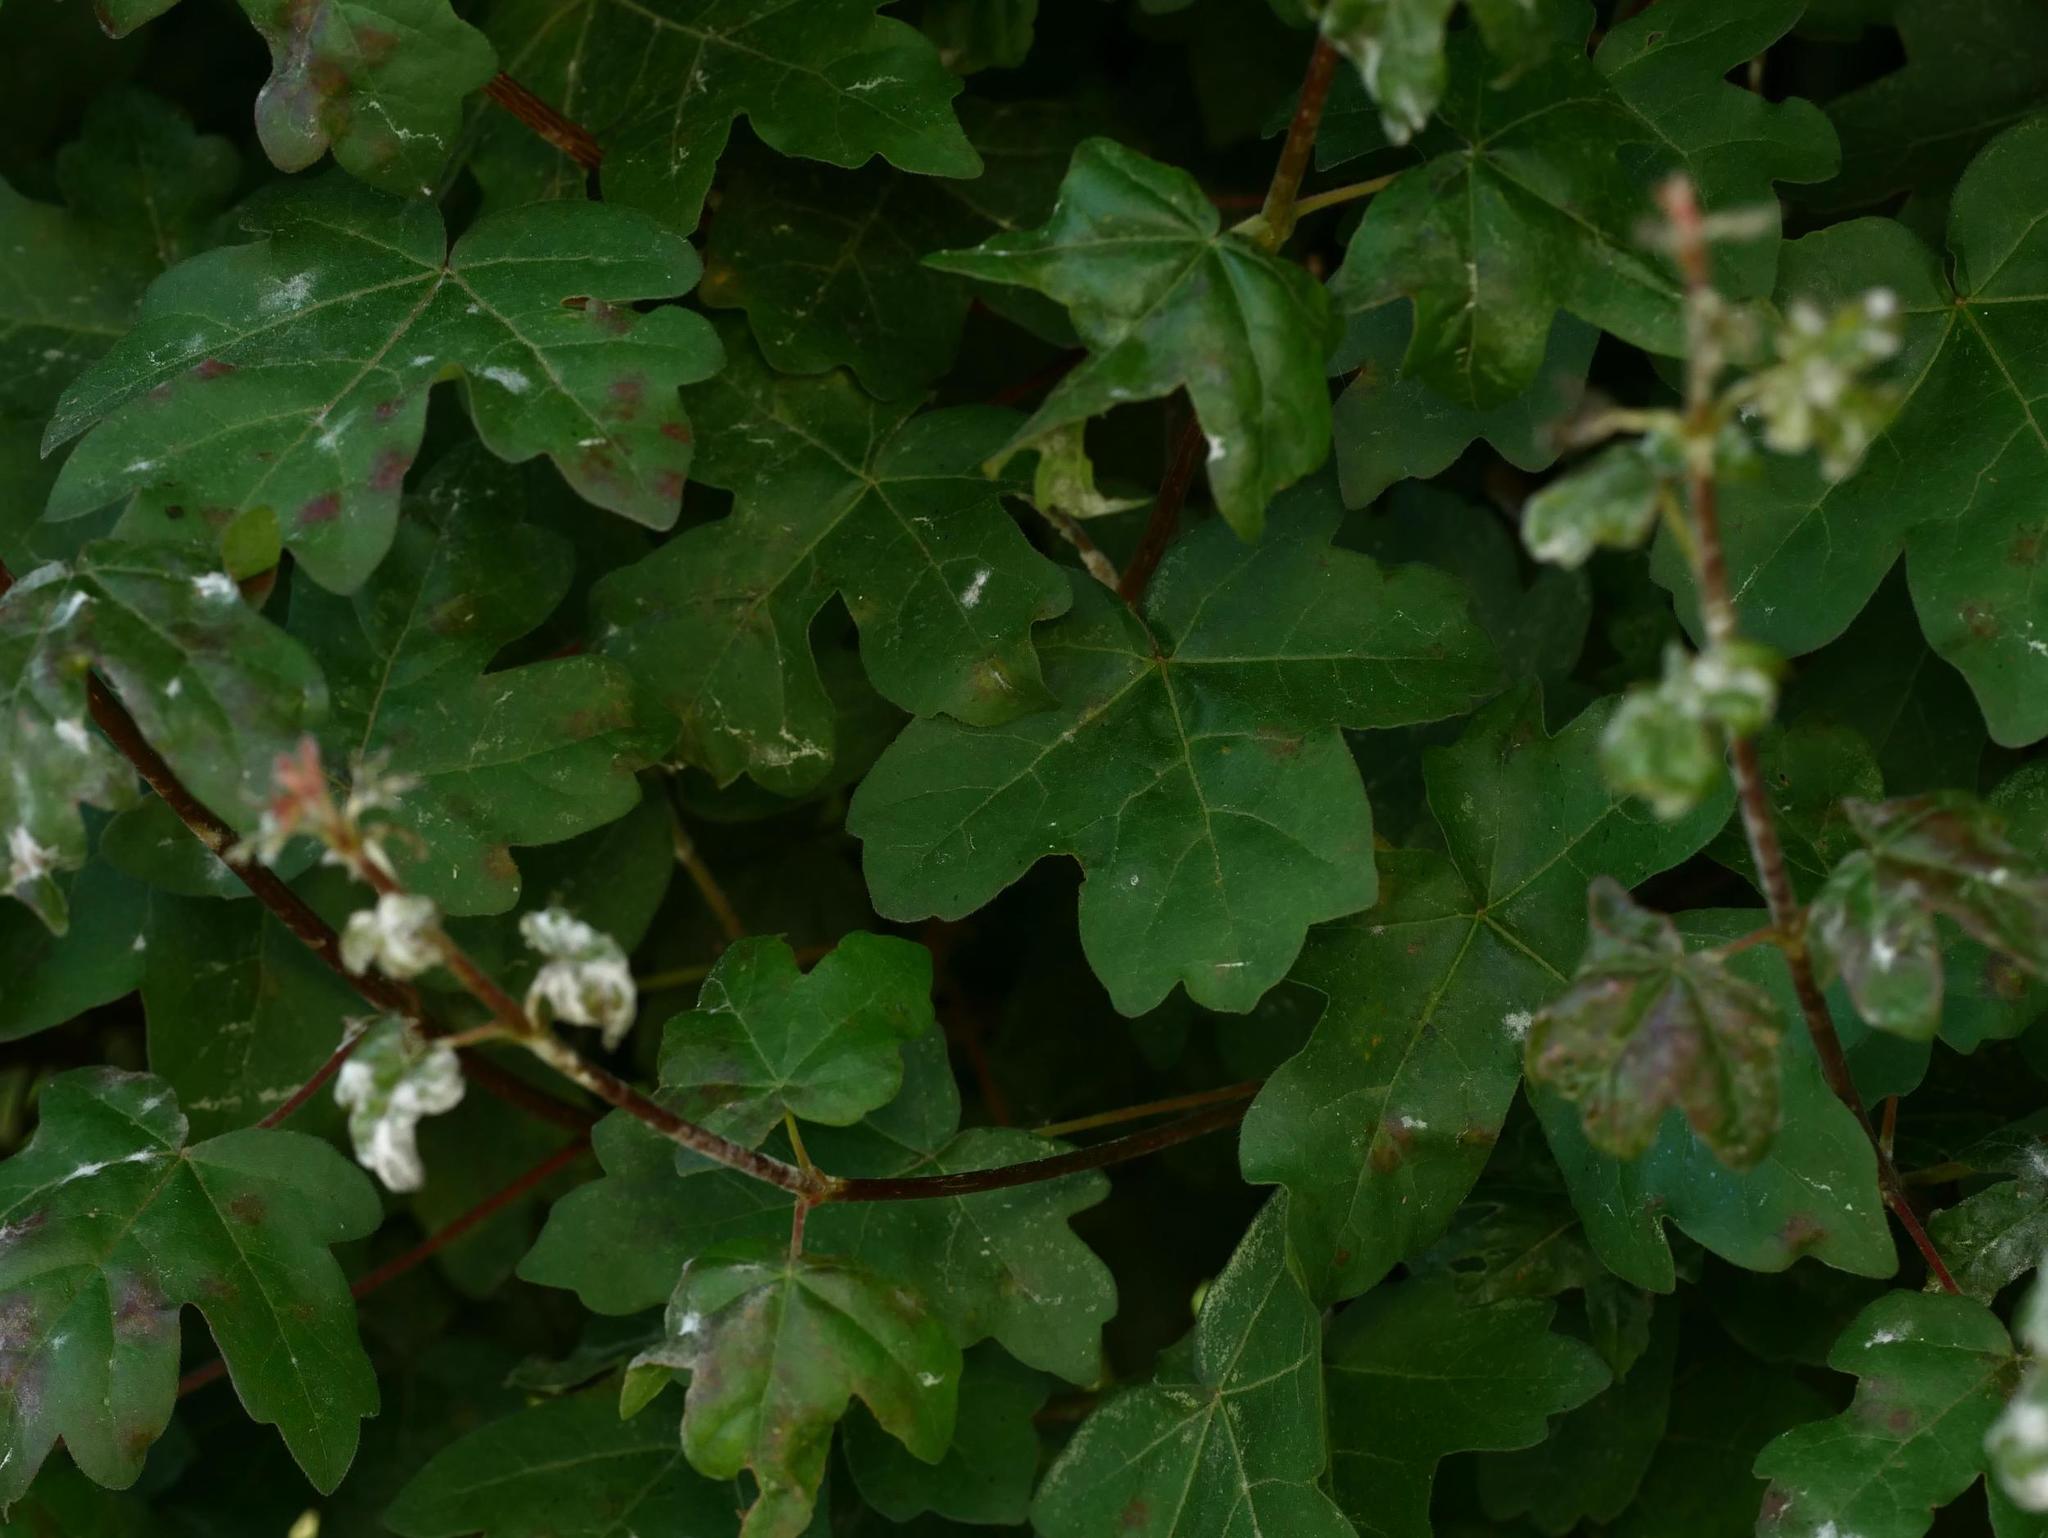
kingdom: Plantae
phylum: Tracheophyta
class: Magnoliopsida
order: Sapindales
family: Sapindaceae
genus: Acer
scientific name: Acer campestre
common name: Field maple
